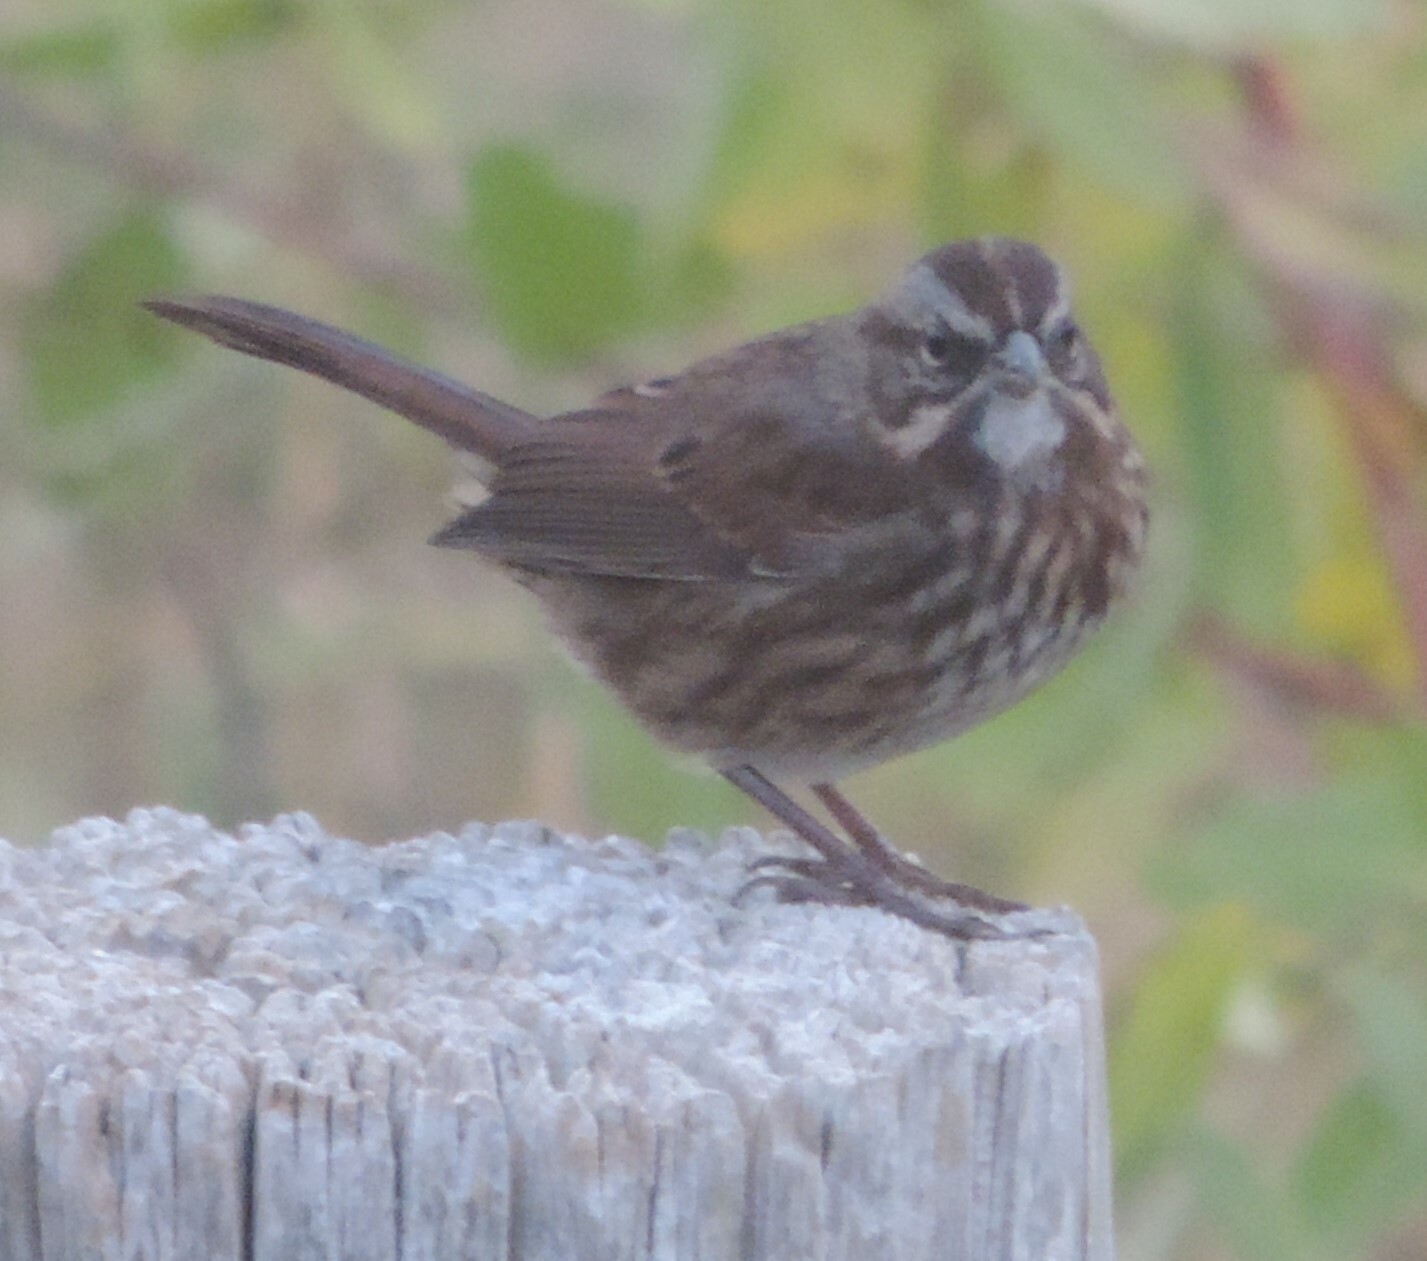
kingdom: Animalia
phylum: Chordata
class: Aves
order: Passeriformes
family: Passerellidae
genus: Melospiza
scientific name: Melospiza melodia
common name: Song sparrow
